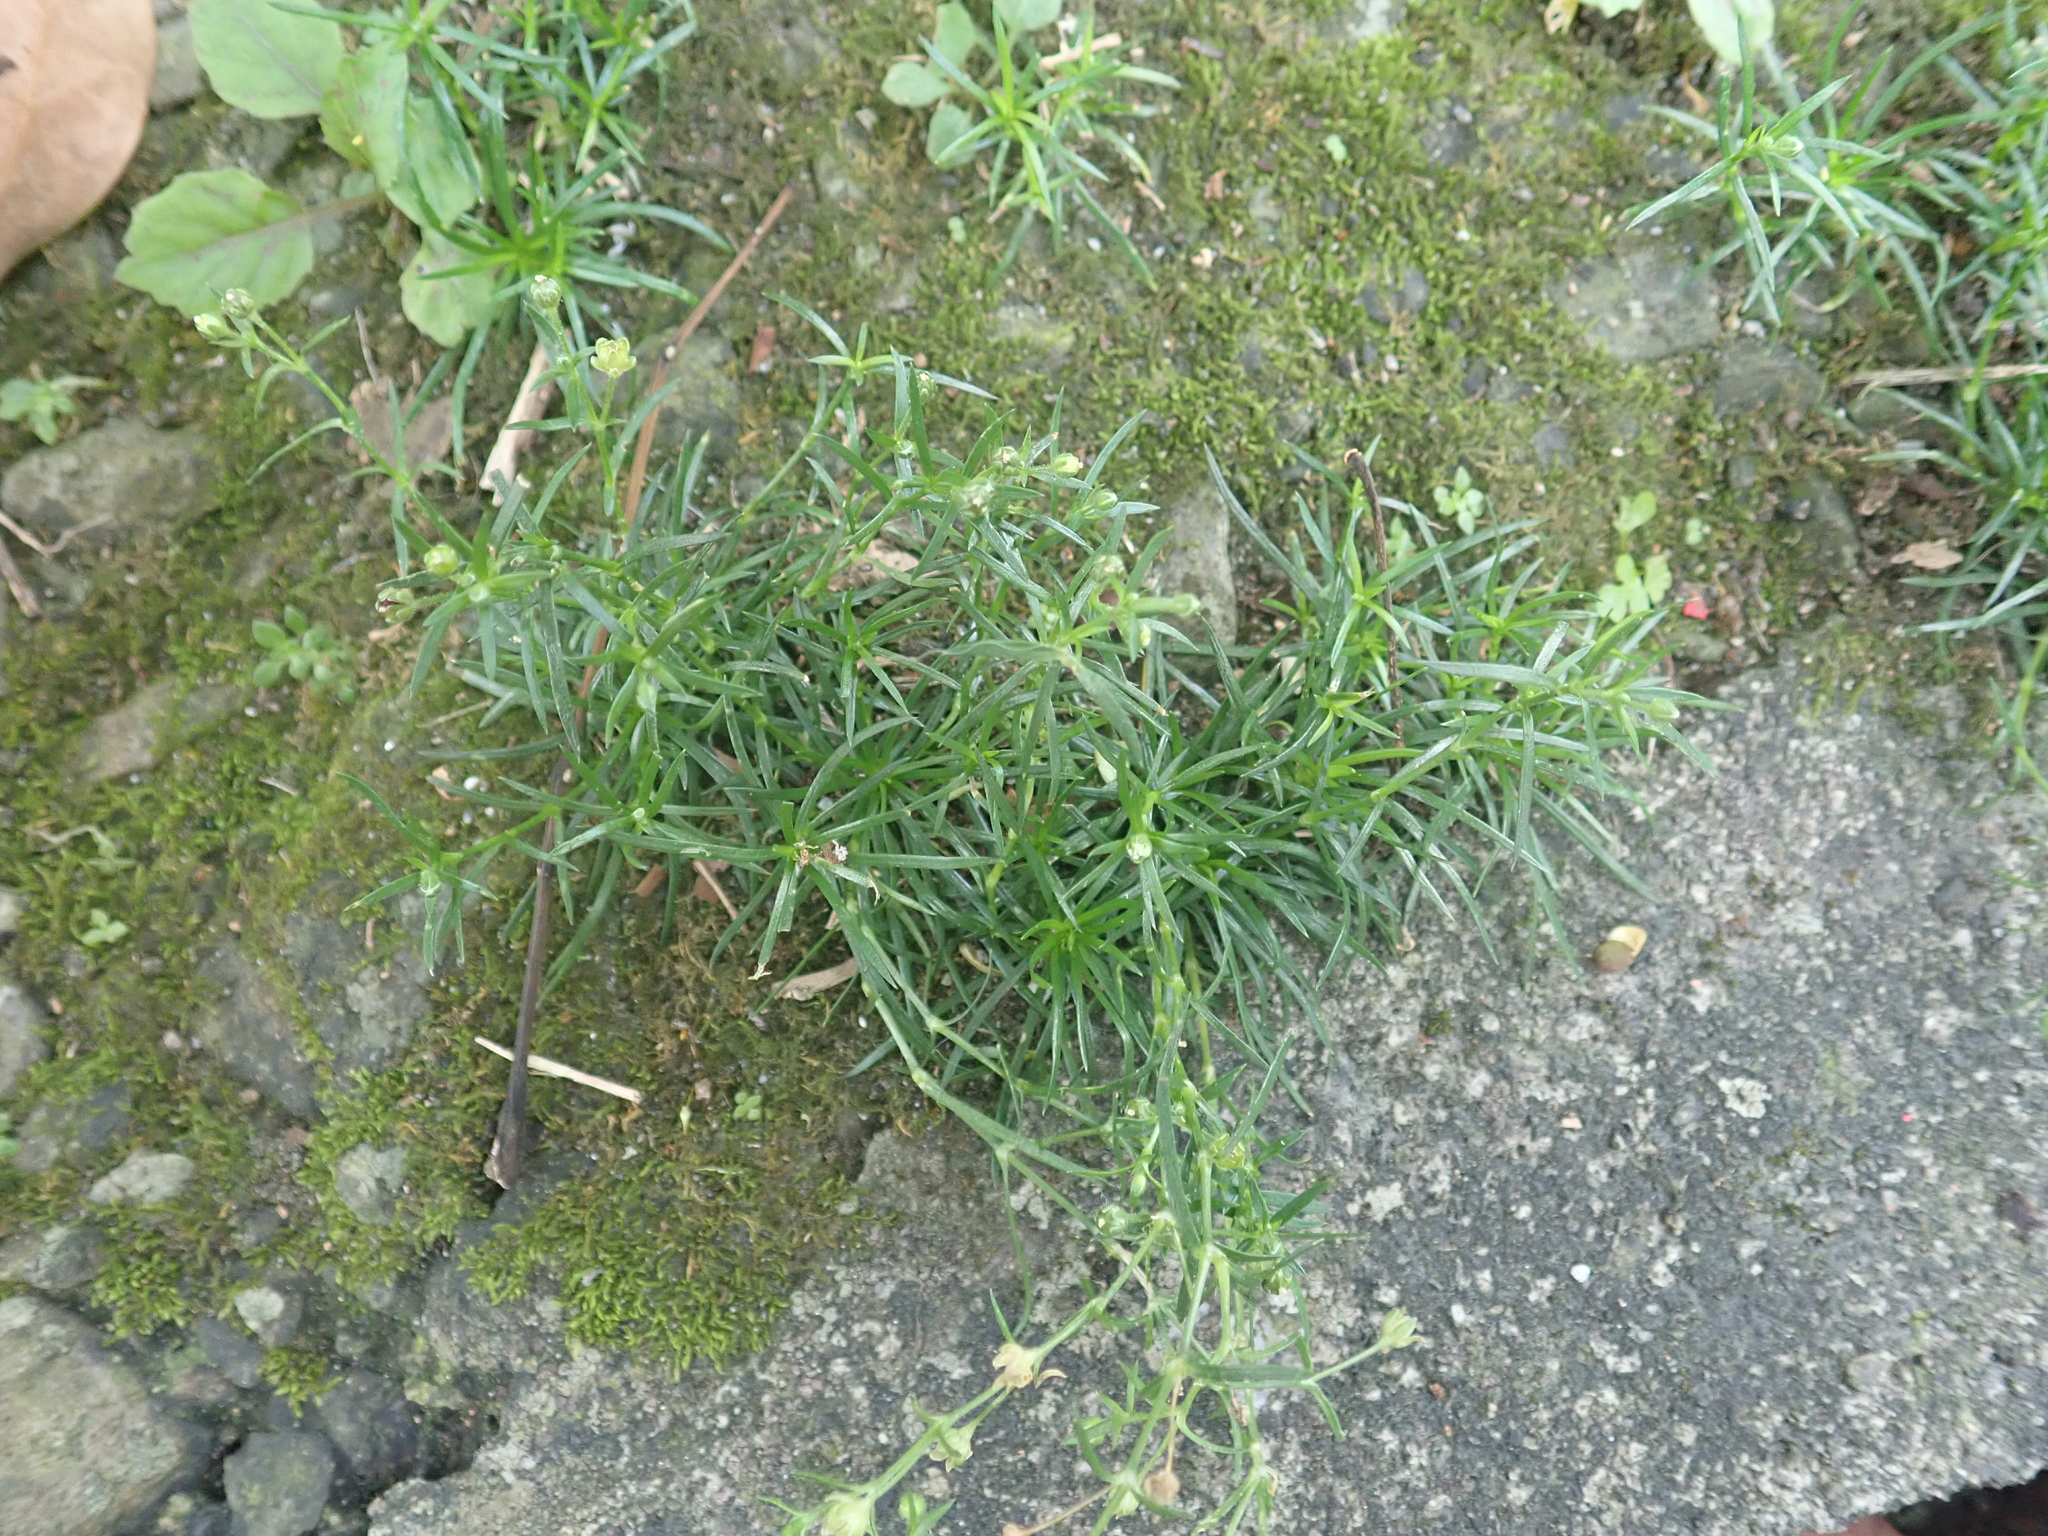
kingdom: Plantae
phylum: Tracheophyta
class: Magnoliopsida
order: Caryophyllales
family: Caryophyllaceae
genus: Sagina
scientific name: Sagina japonica
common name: Japanese pearlwort
